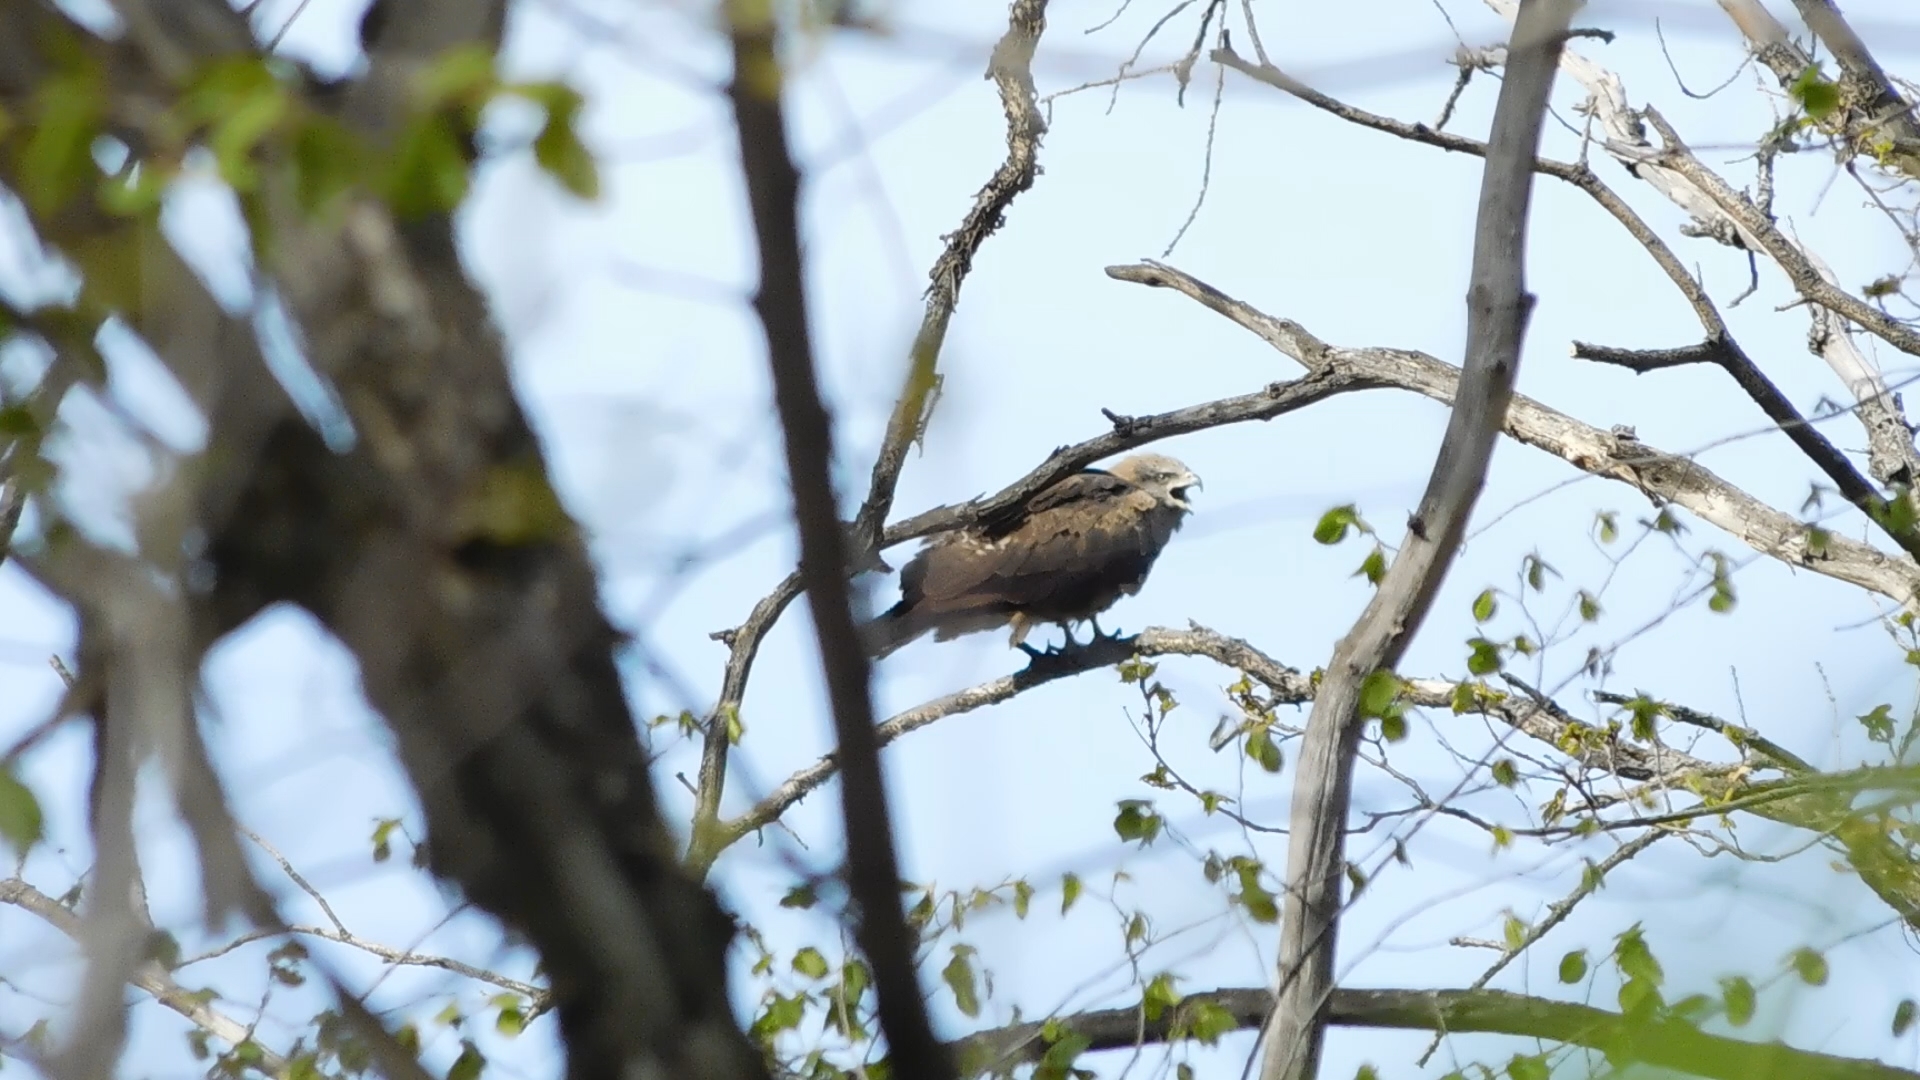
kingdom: Animalia
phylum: Chordata
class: Aves
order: Accipitriformes
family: Accipitridae
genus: Milvus
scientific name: Milvus migrans
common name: Black kite
